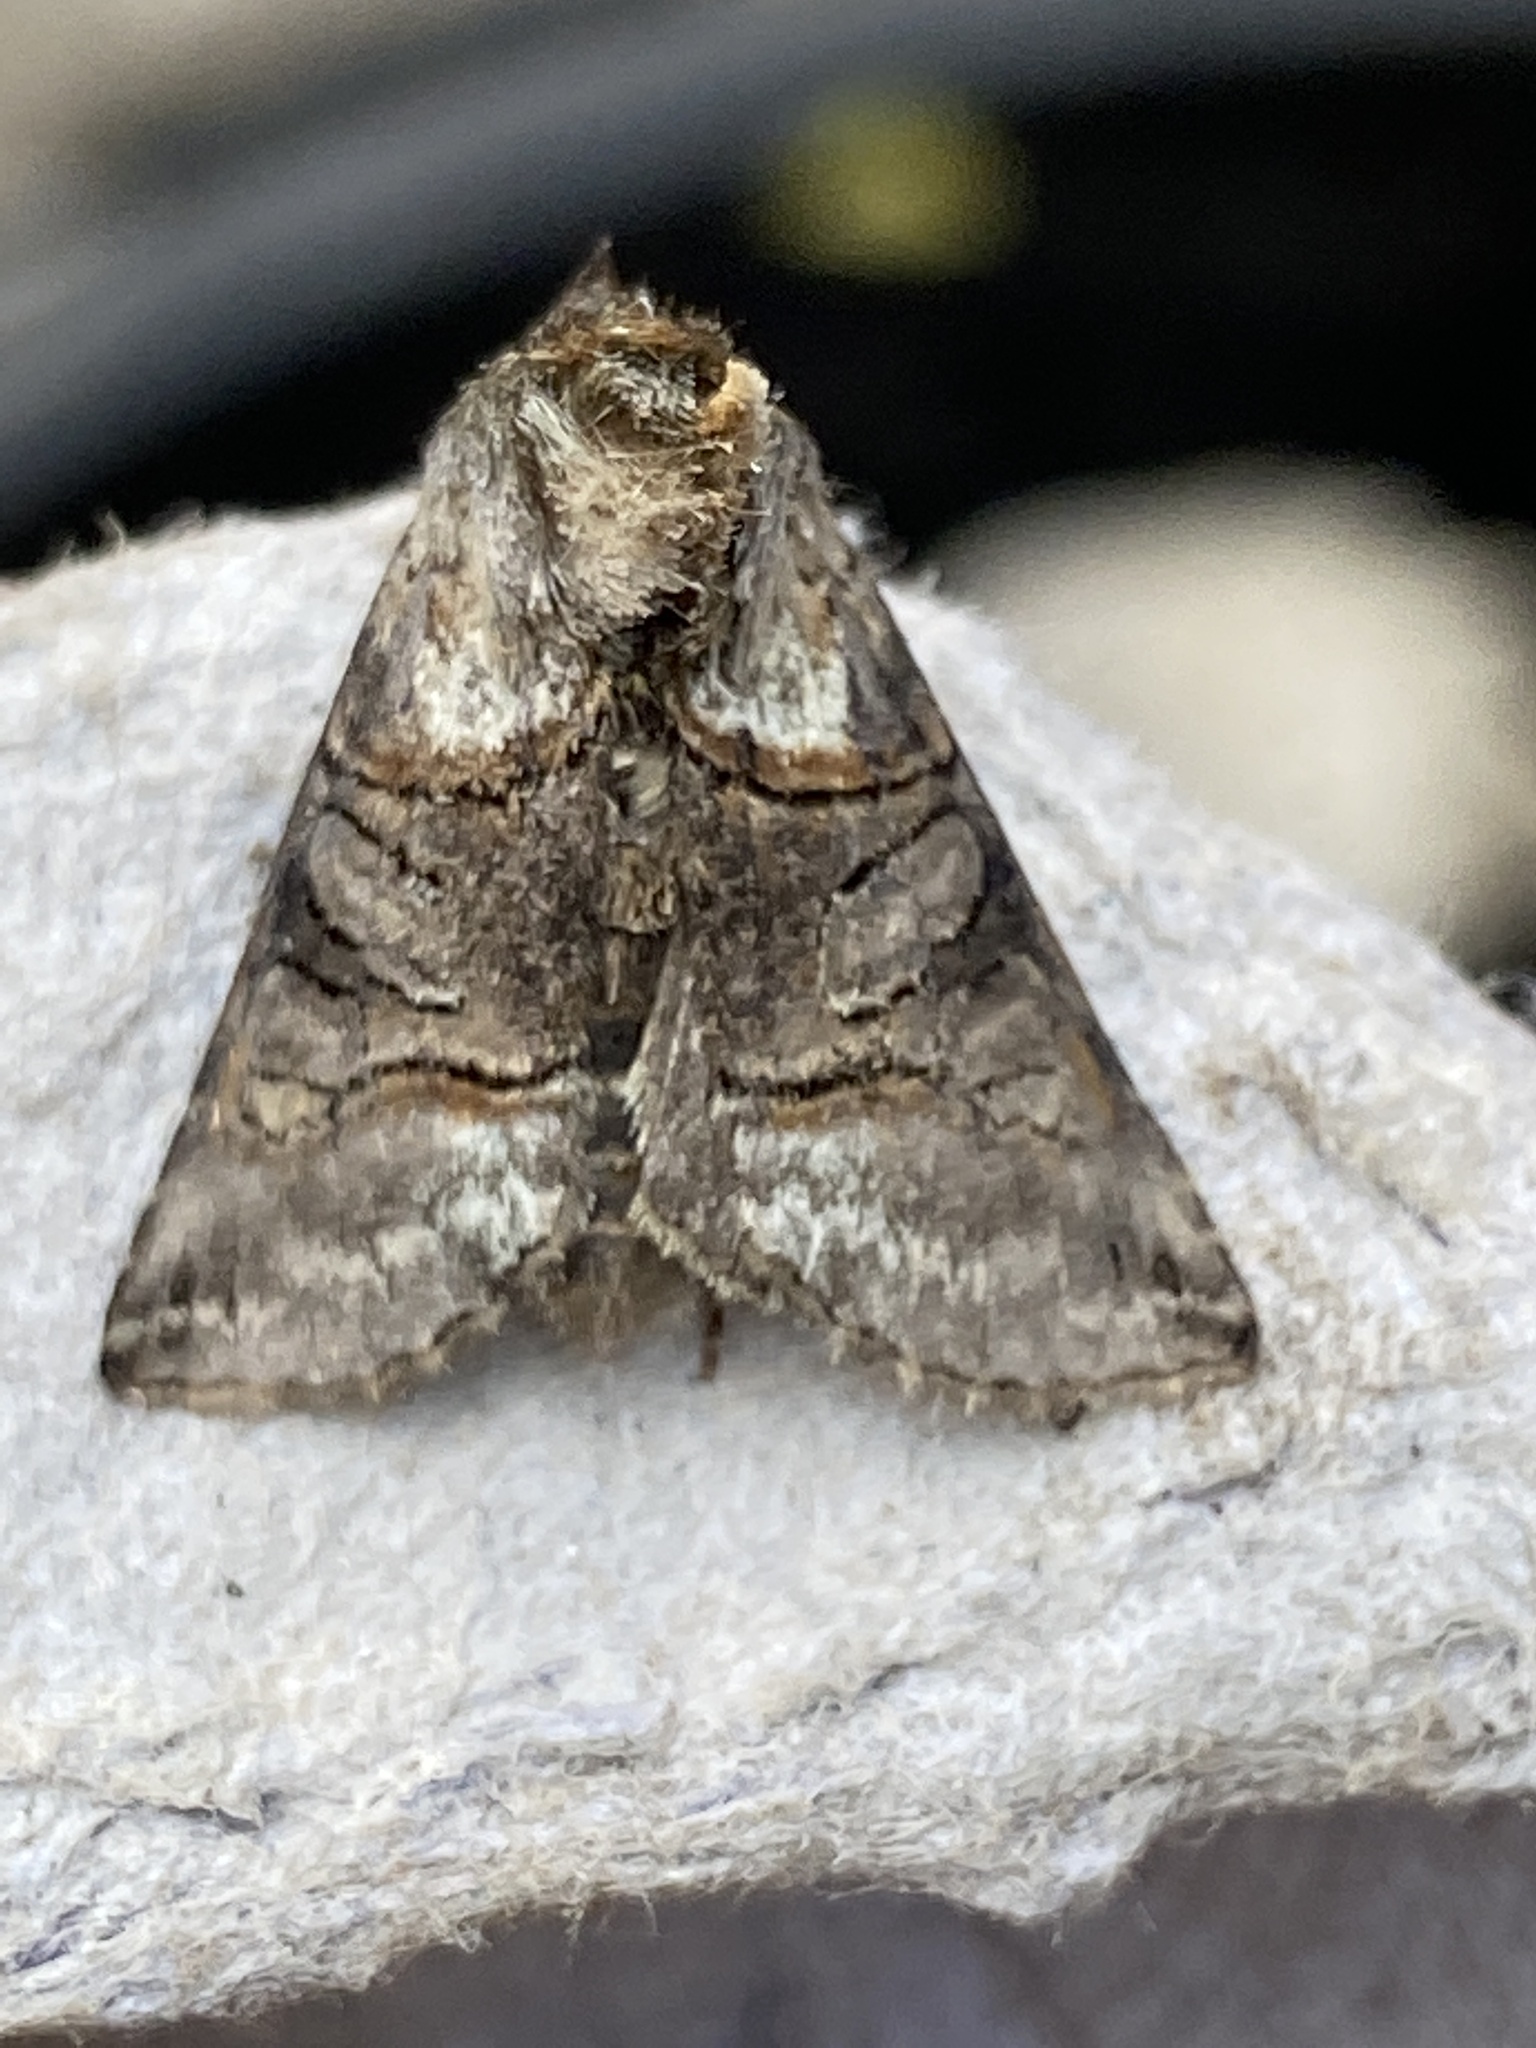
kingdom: Animalia
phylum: Arthropoda
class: Insecta
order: Lepidoptera
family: Noctuidae
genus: Abrostola
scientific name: Abrostola tripartita
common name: Spectacle
